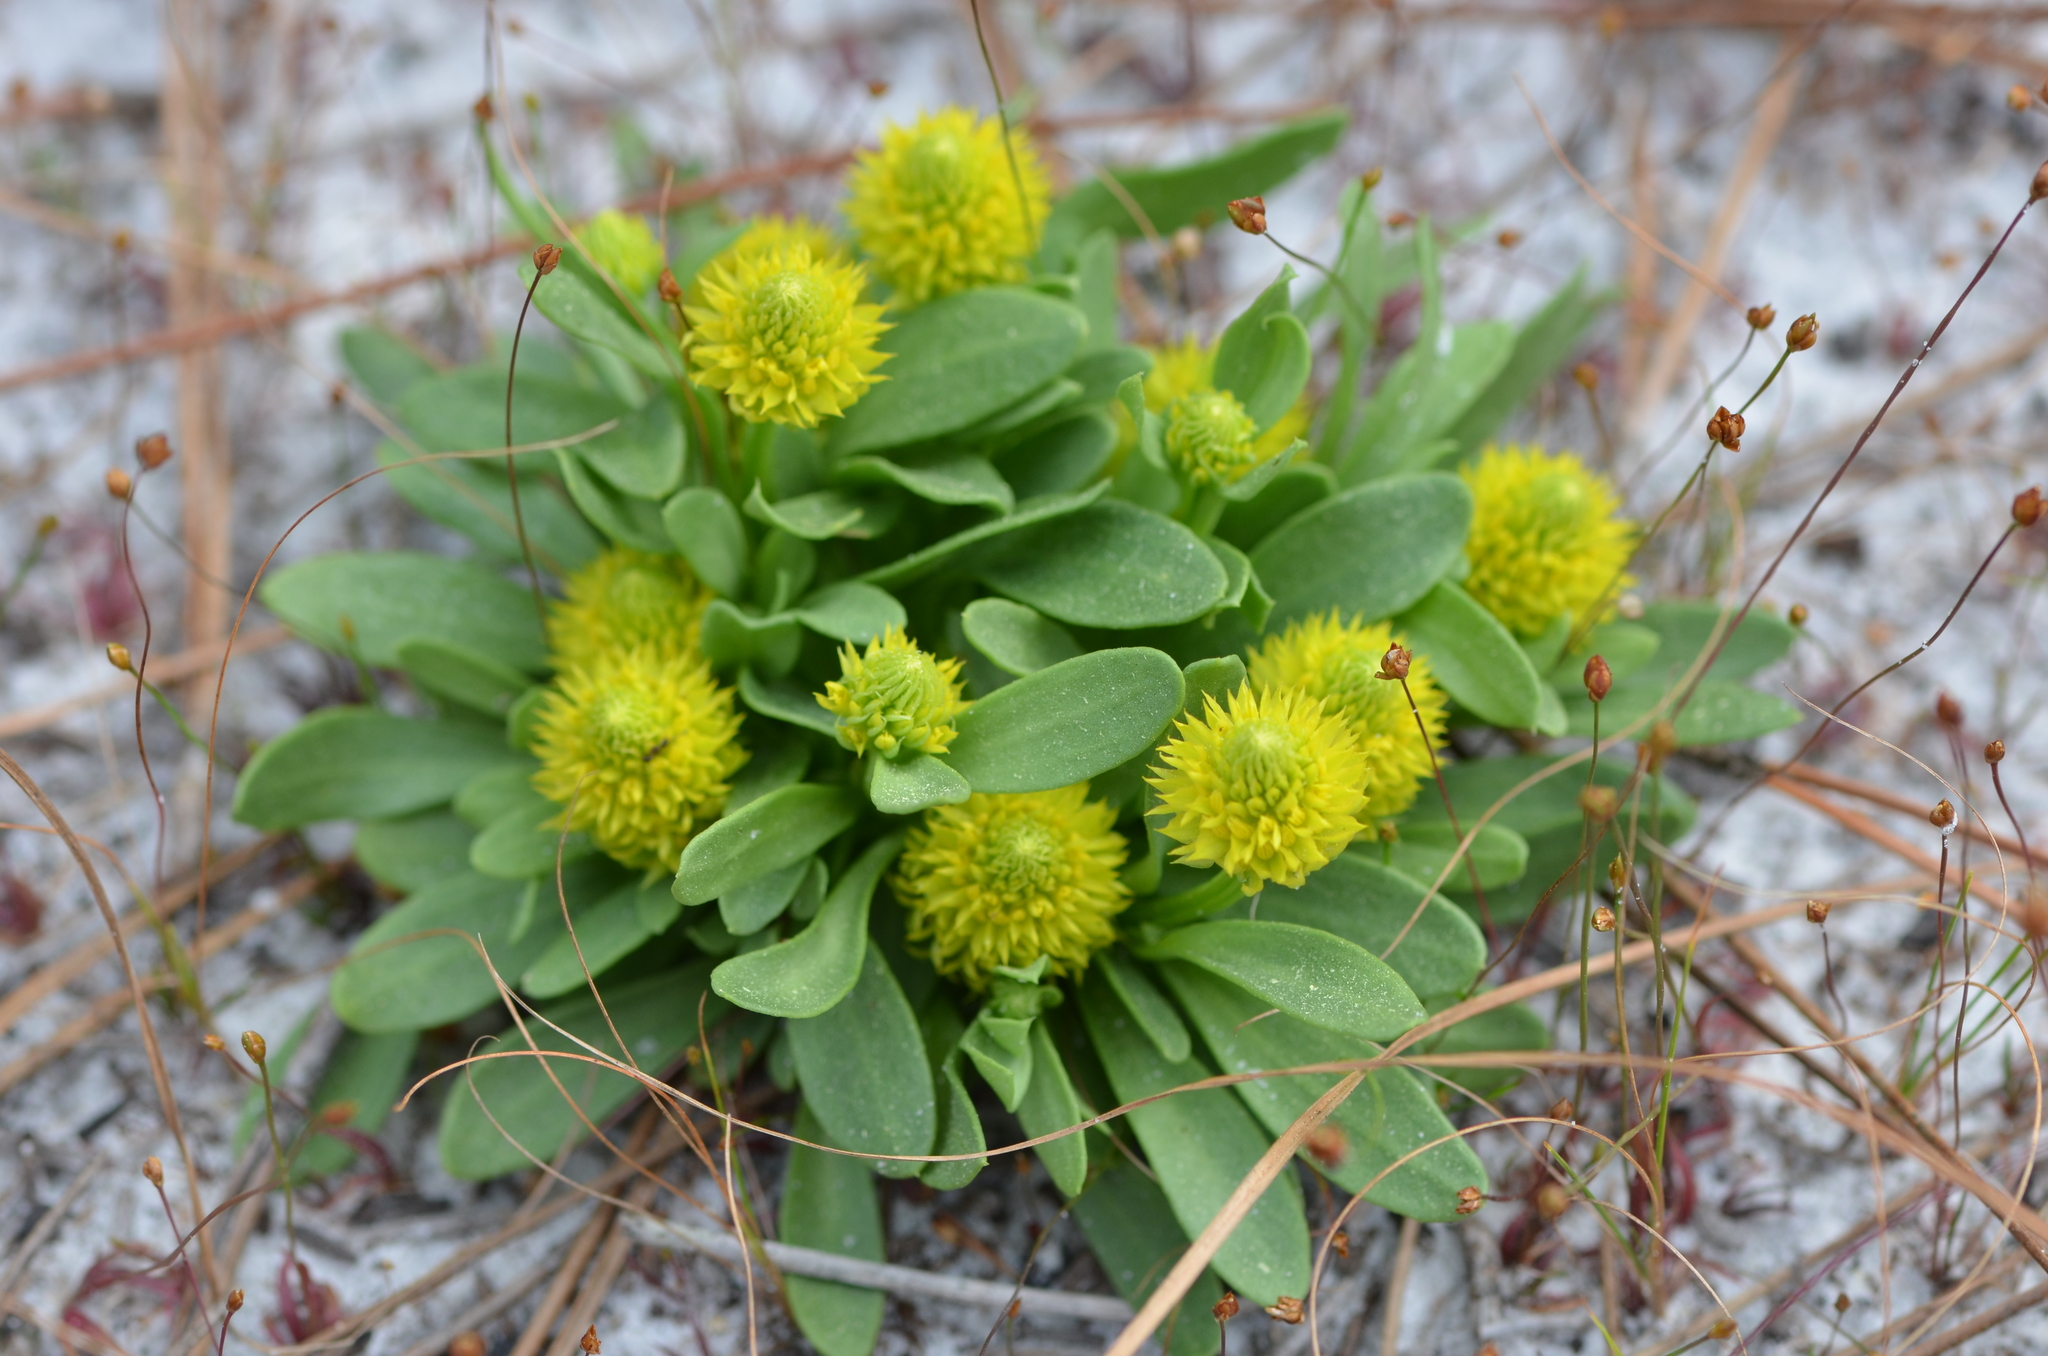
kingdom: Plantae
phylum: Tracheophyta
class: Magnoliopsida
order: Fabales
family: Polygalaceae
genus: Polygala
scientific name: Polygala nana
